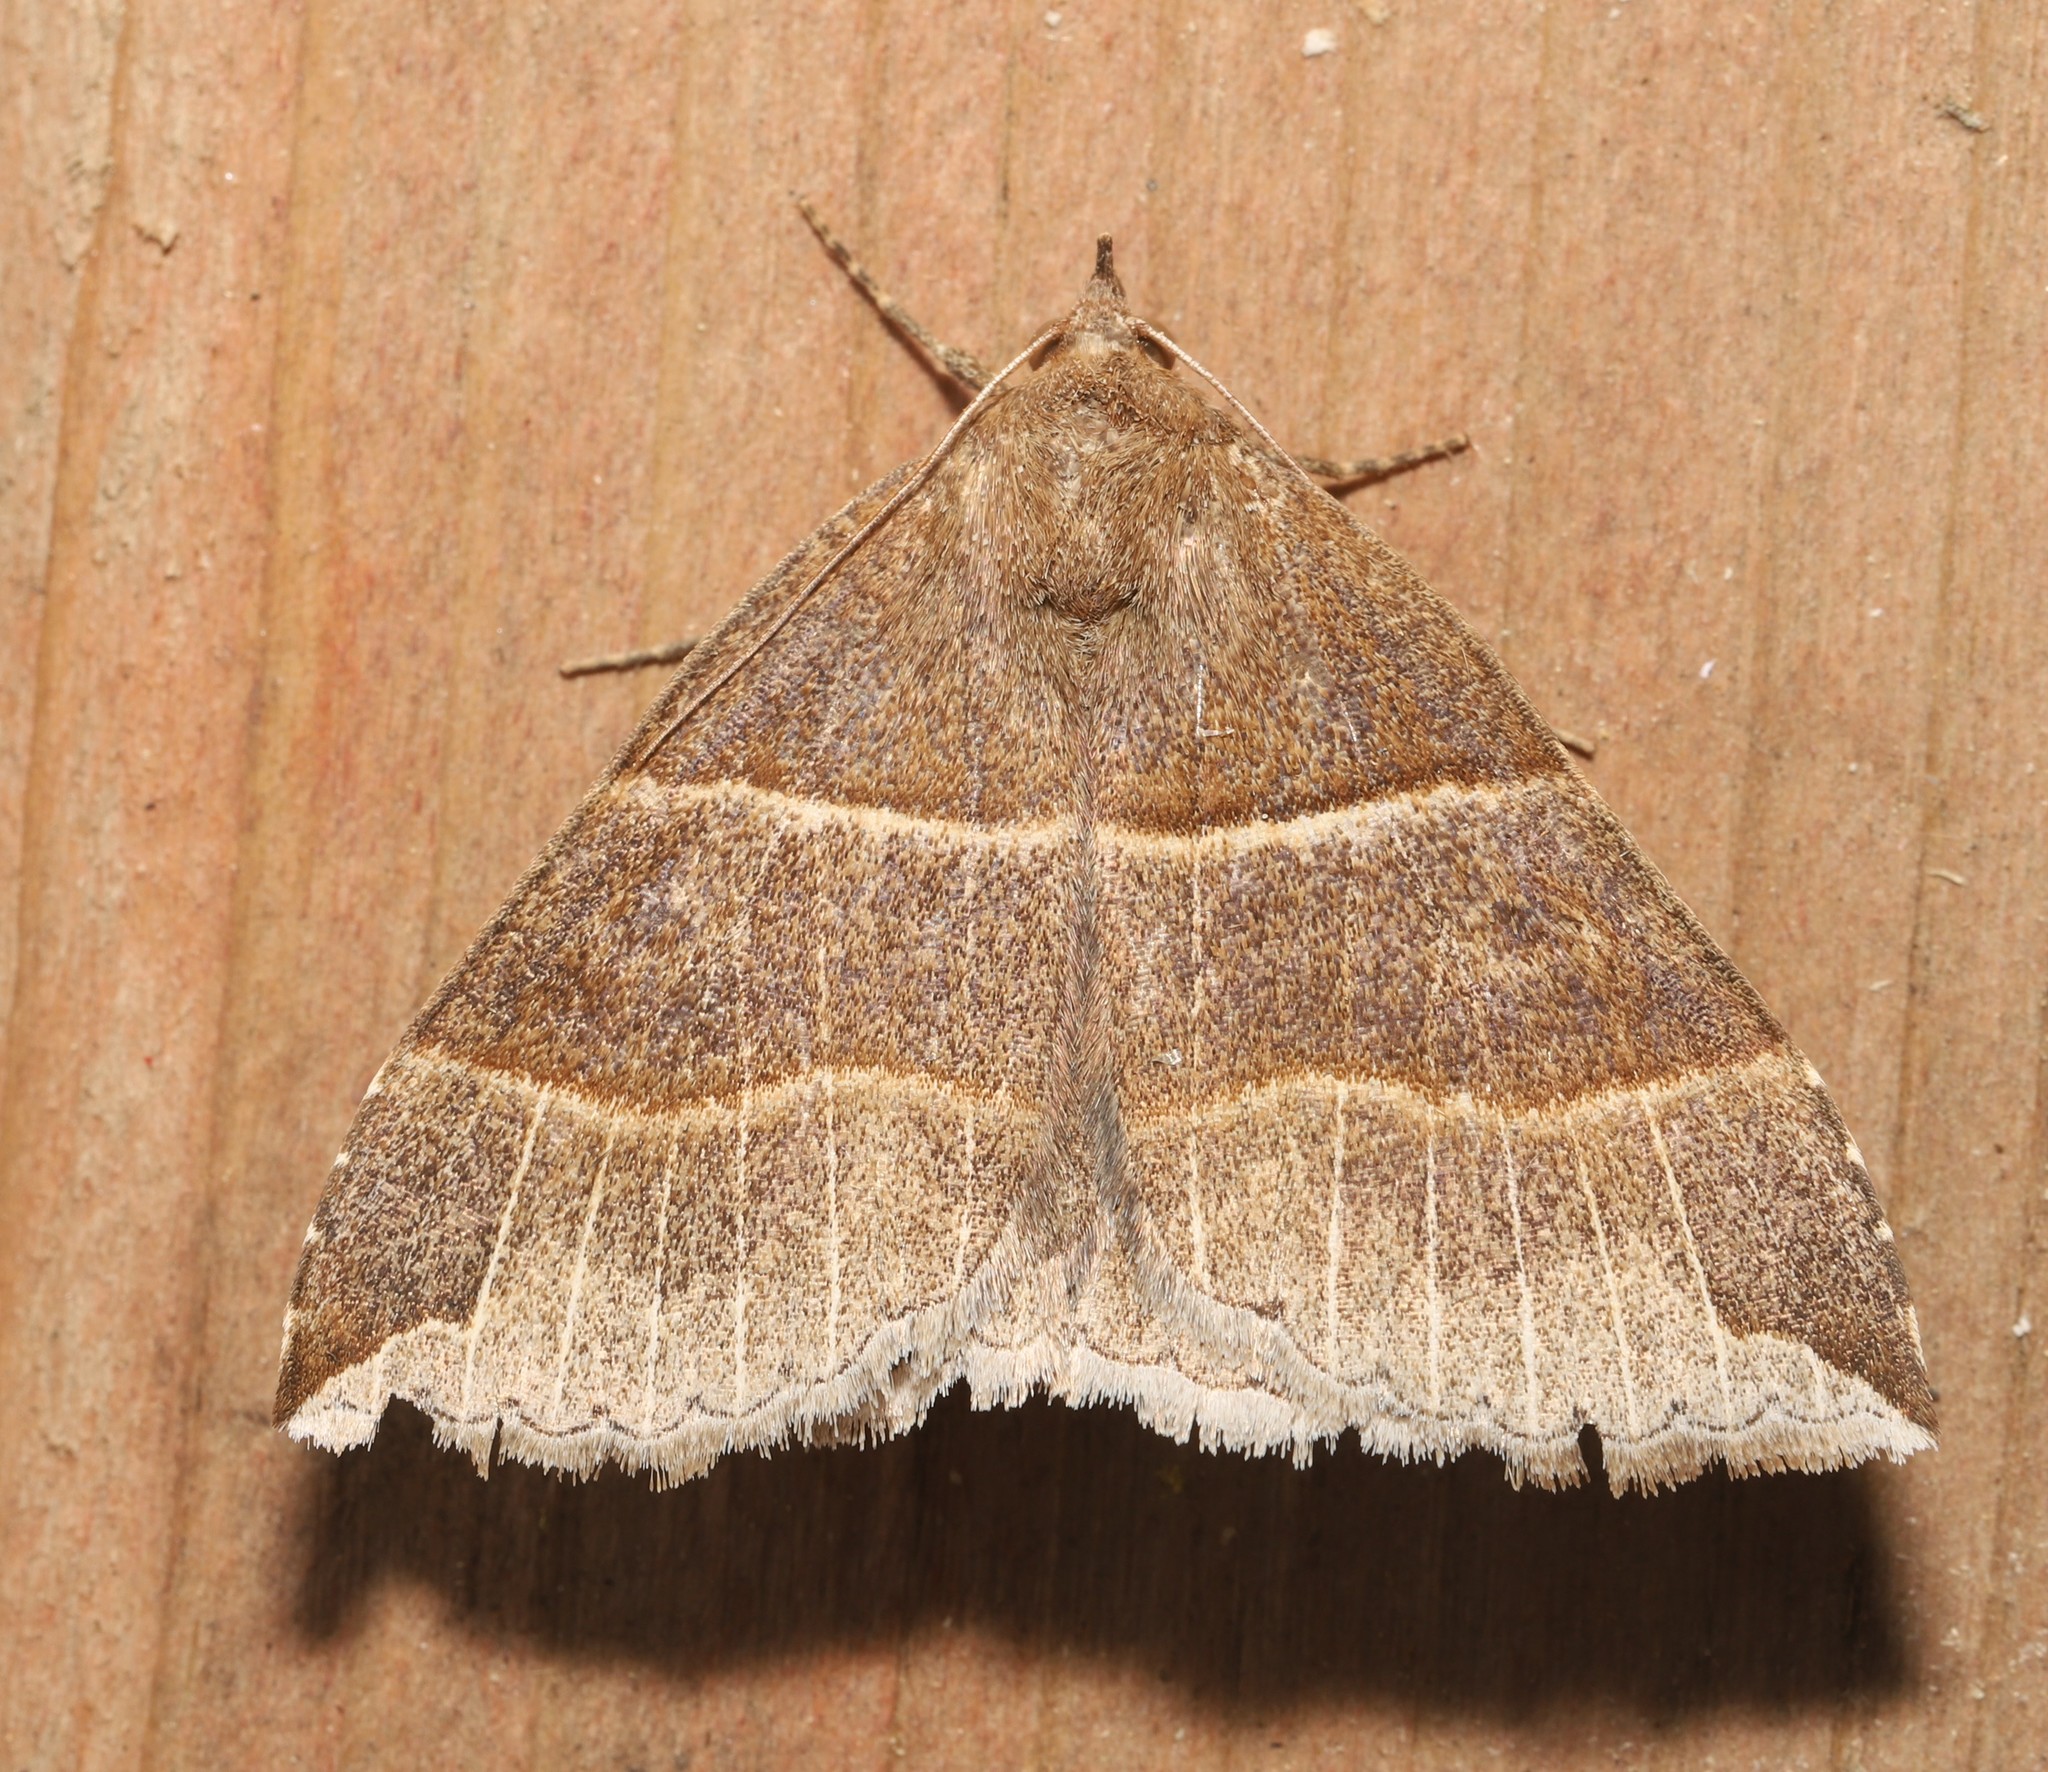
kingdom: Animalia
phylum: Arthropoda
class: Insecta
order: Lepidoptera
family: Erebidae
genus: Parallelia
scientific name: Parallelia bistriaris
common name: Maple looper moth
